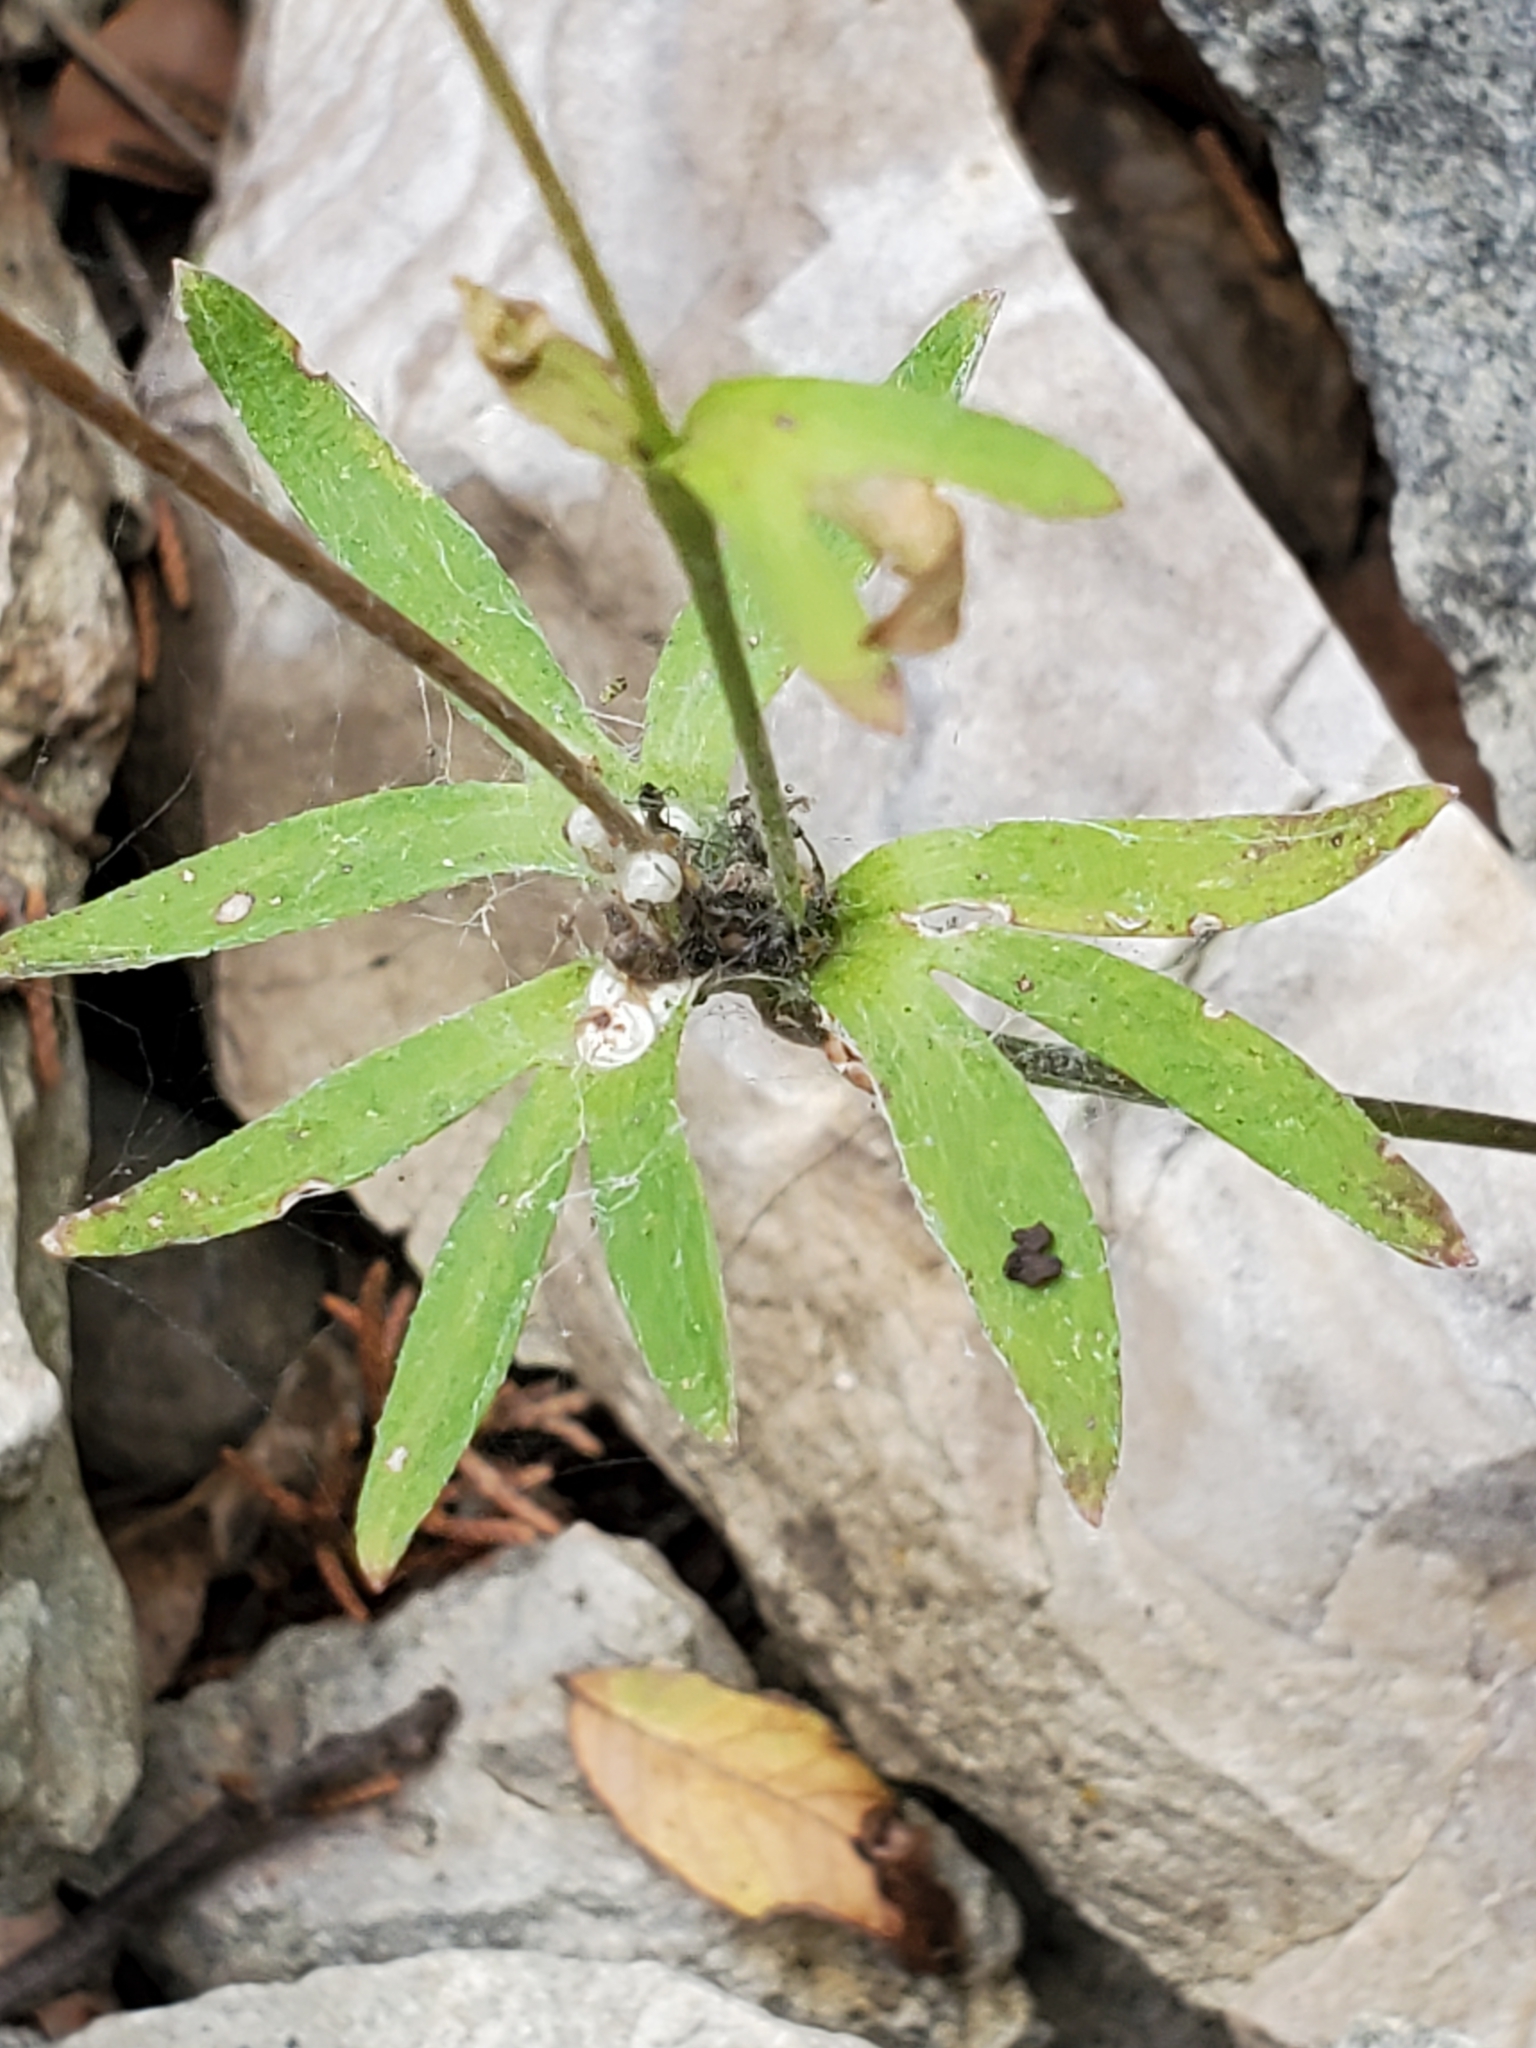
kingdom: Plantae
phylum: Tracheophyta
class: Magnoliopsida
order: Ranunculales
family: Ranunculaceae
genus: Anemone
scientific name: Anemone edwardsiana
